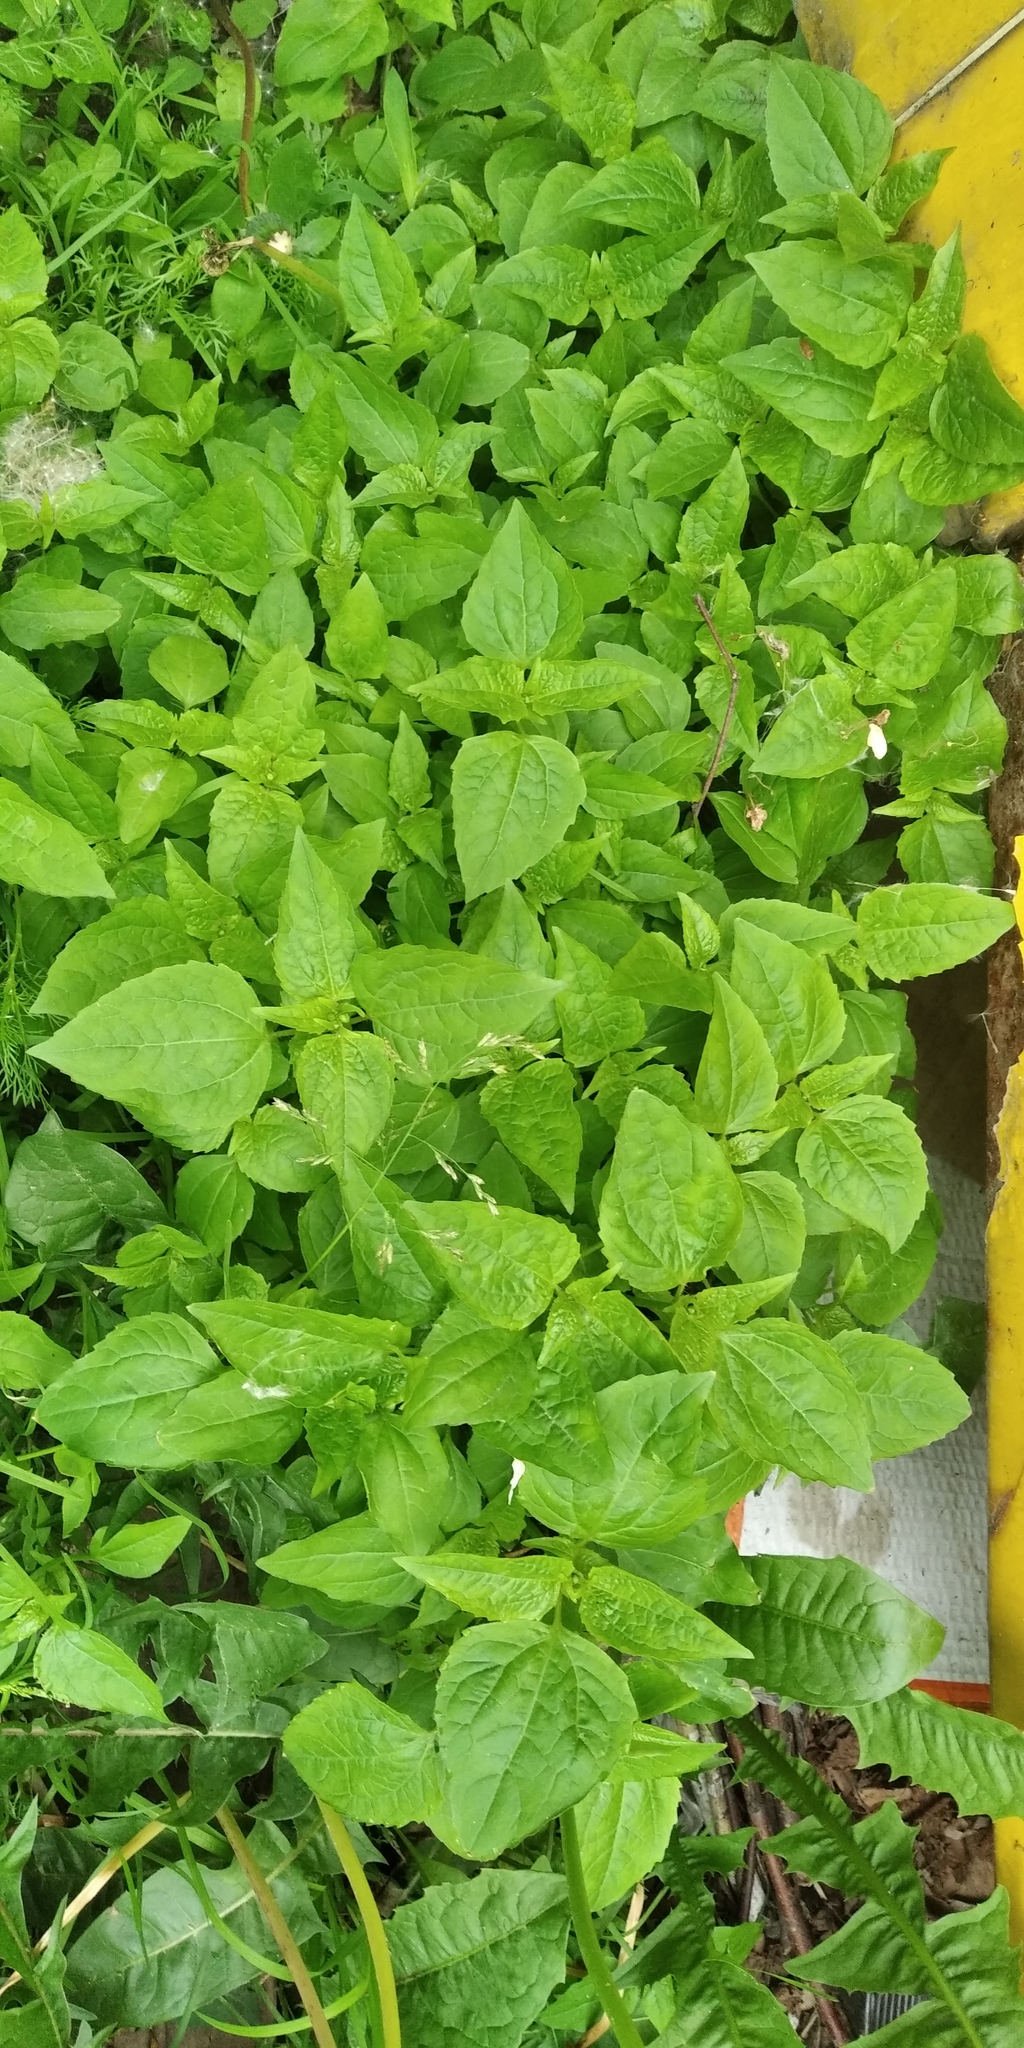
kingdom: Plantae
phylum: Tracheophyta
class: Magnoliopsida
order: Asterales
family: Asteraceae
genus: Galinsoga
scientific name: Galinsoga parviflora
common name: Gallant soldier
